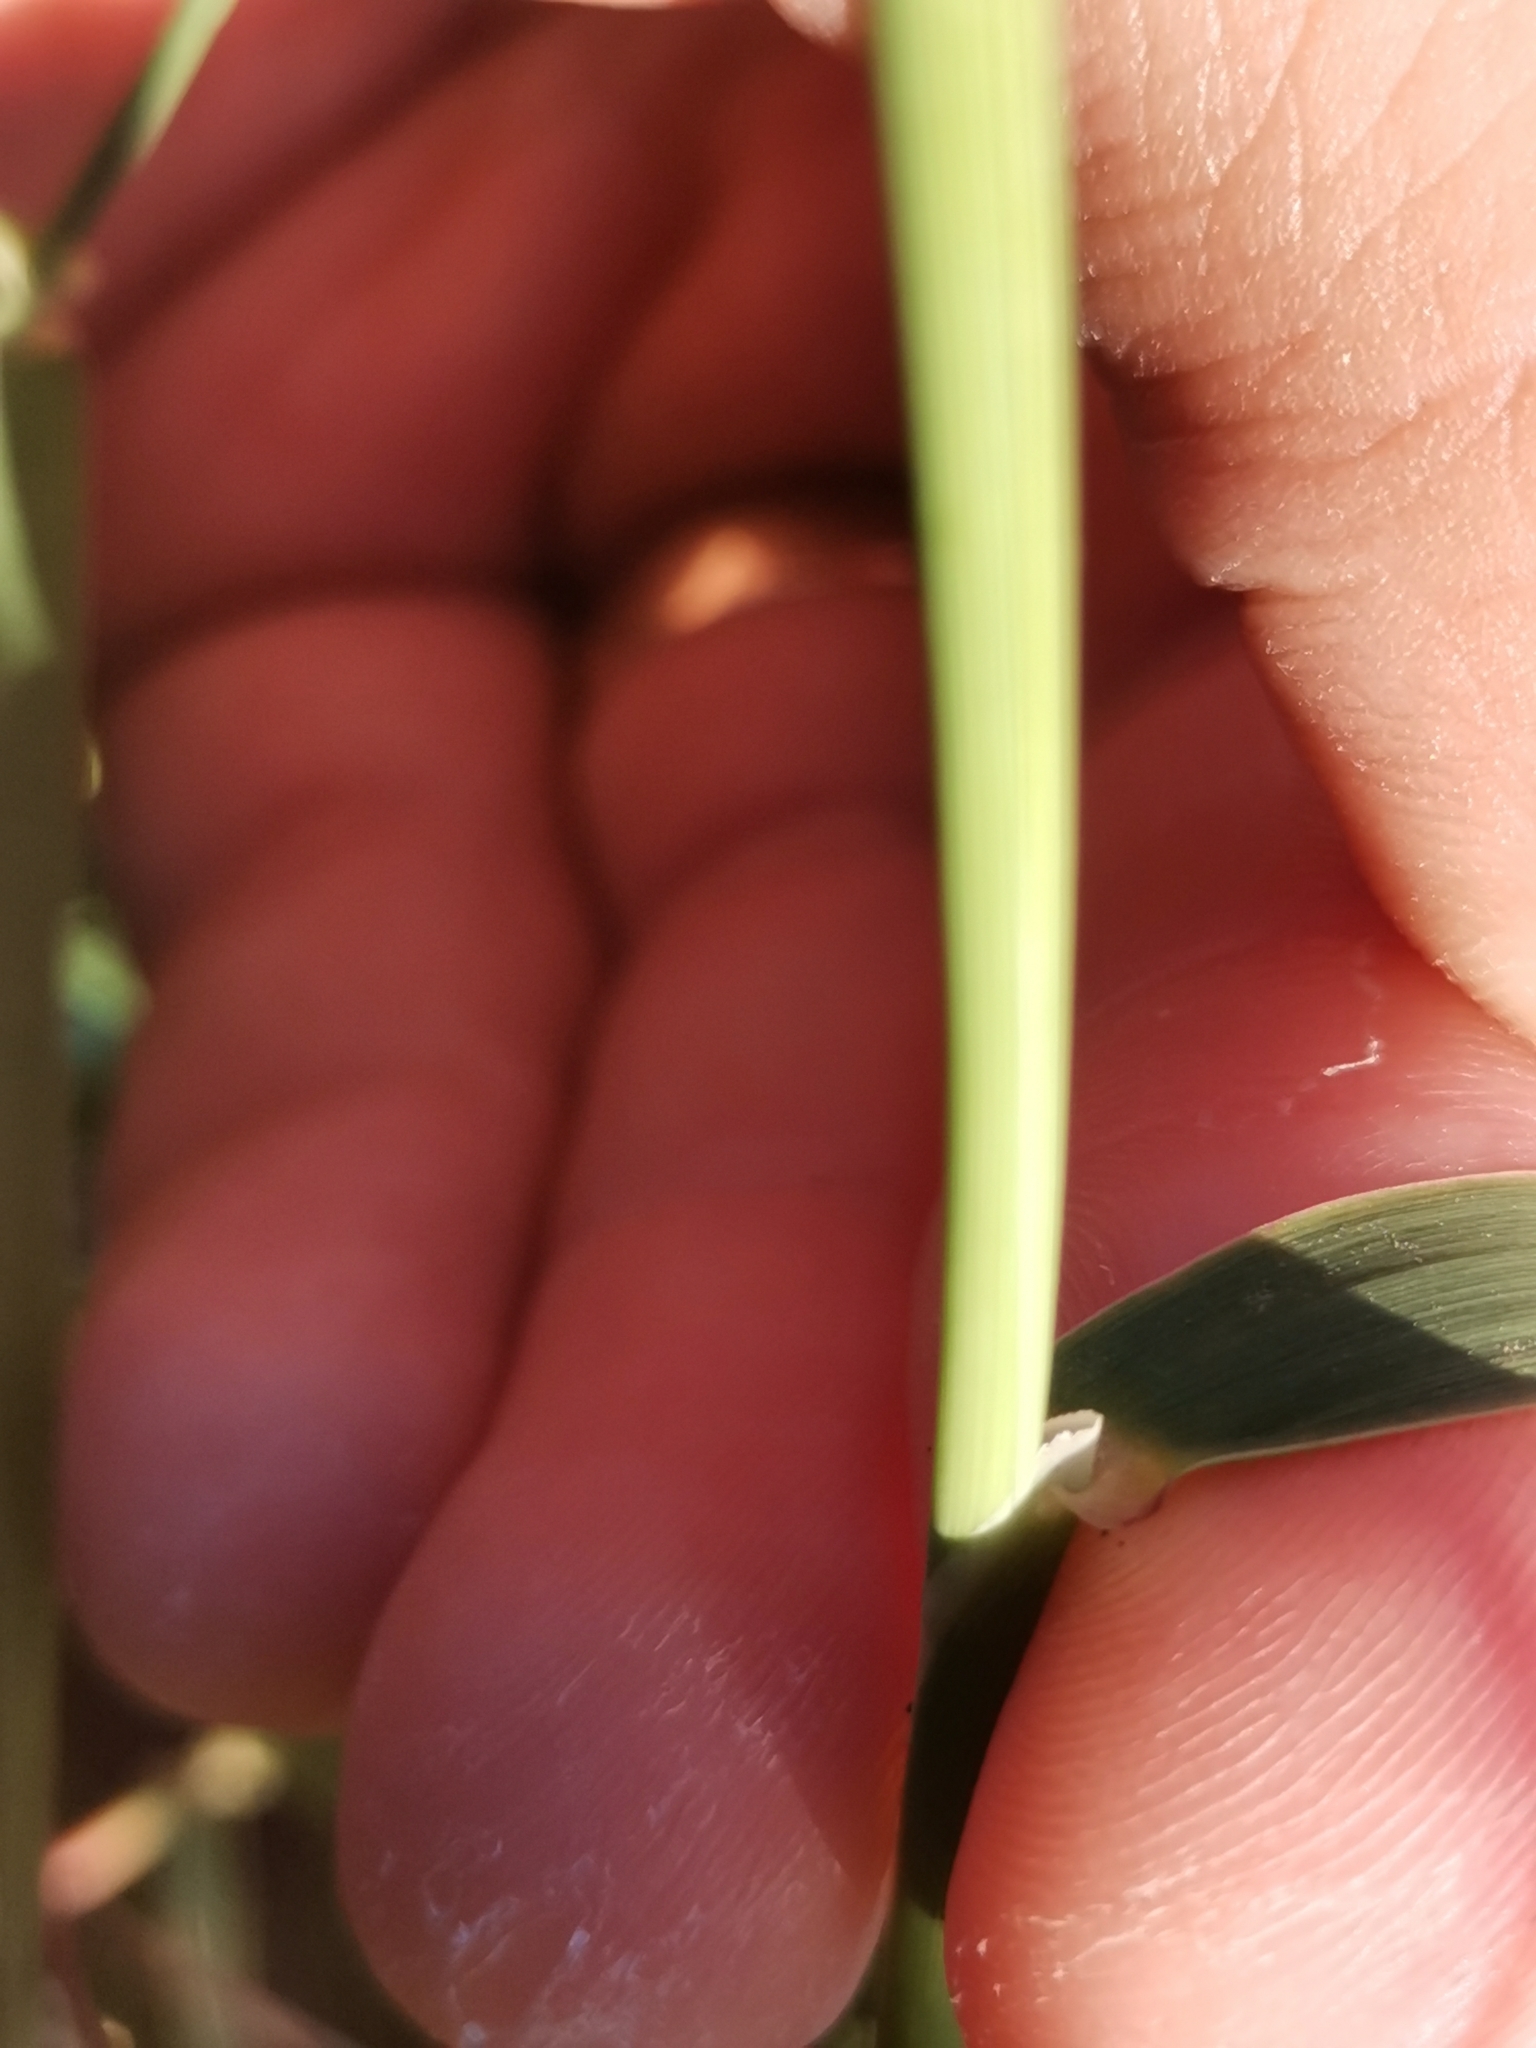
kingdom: Plantae
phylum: Tracheophyta
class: Liliopsida
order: Poales
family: Poaceae
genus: Holcus
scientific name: Holcus rigidus
